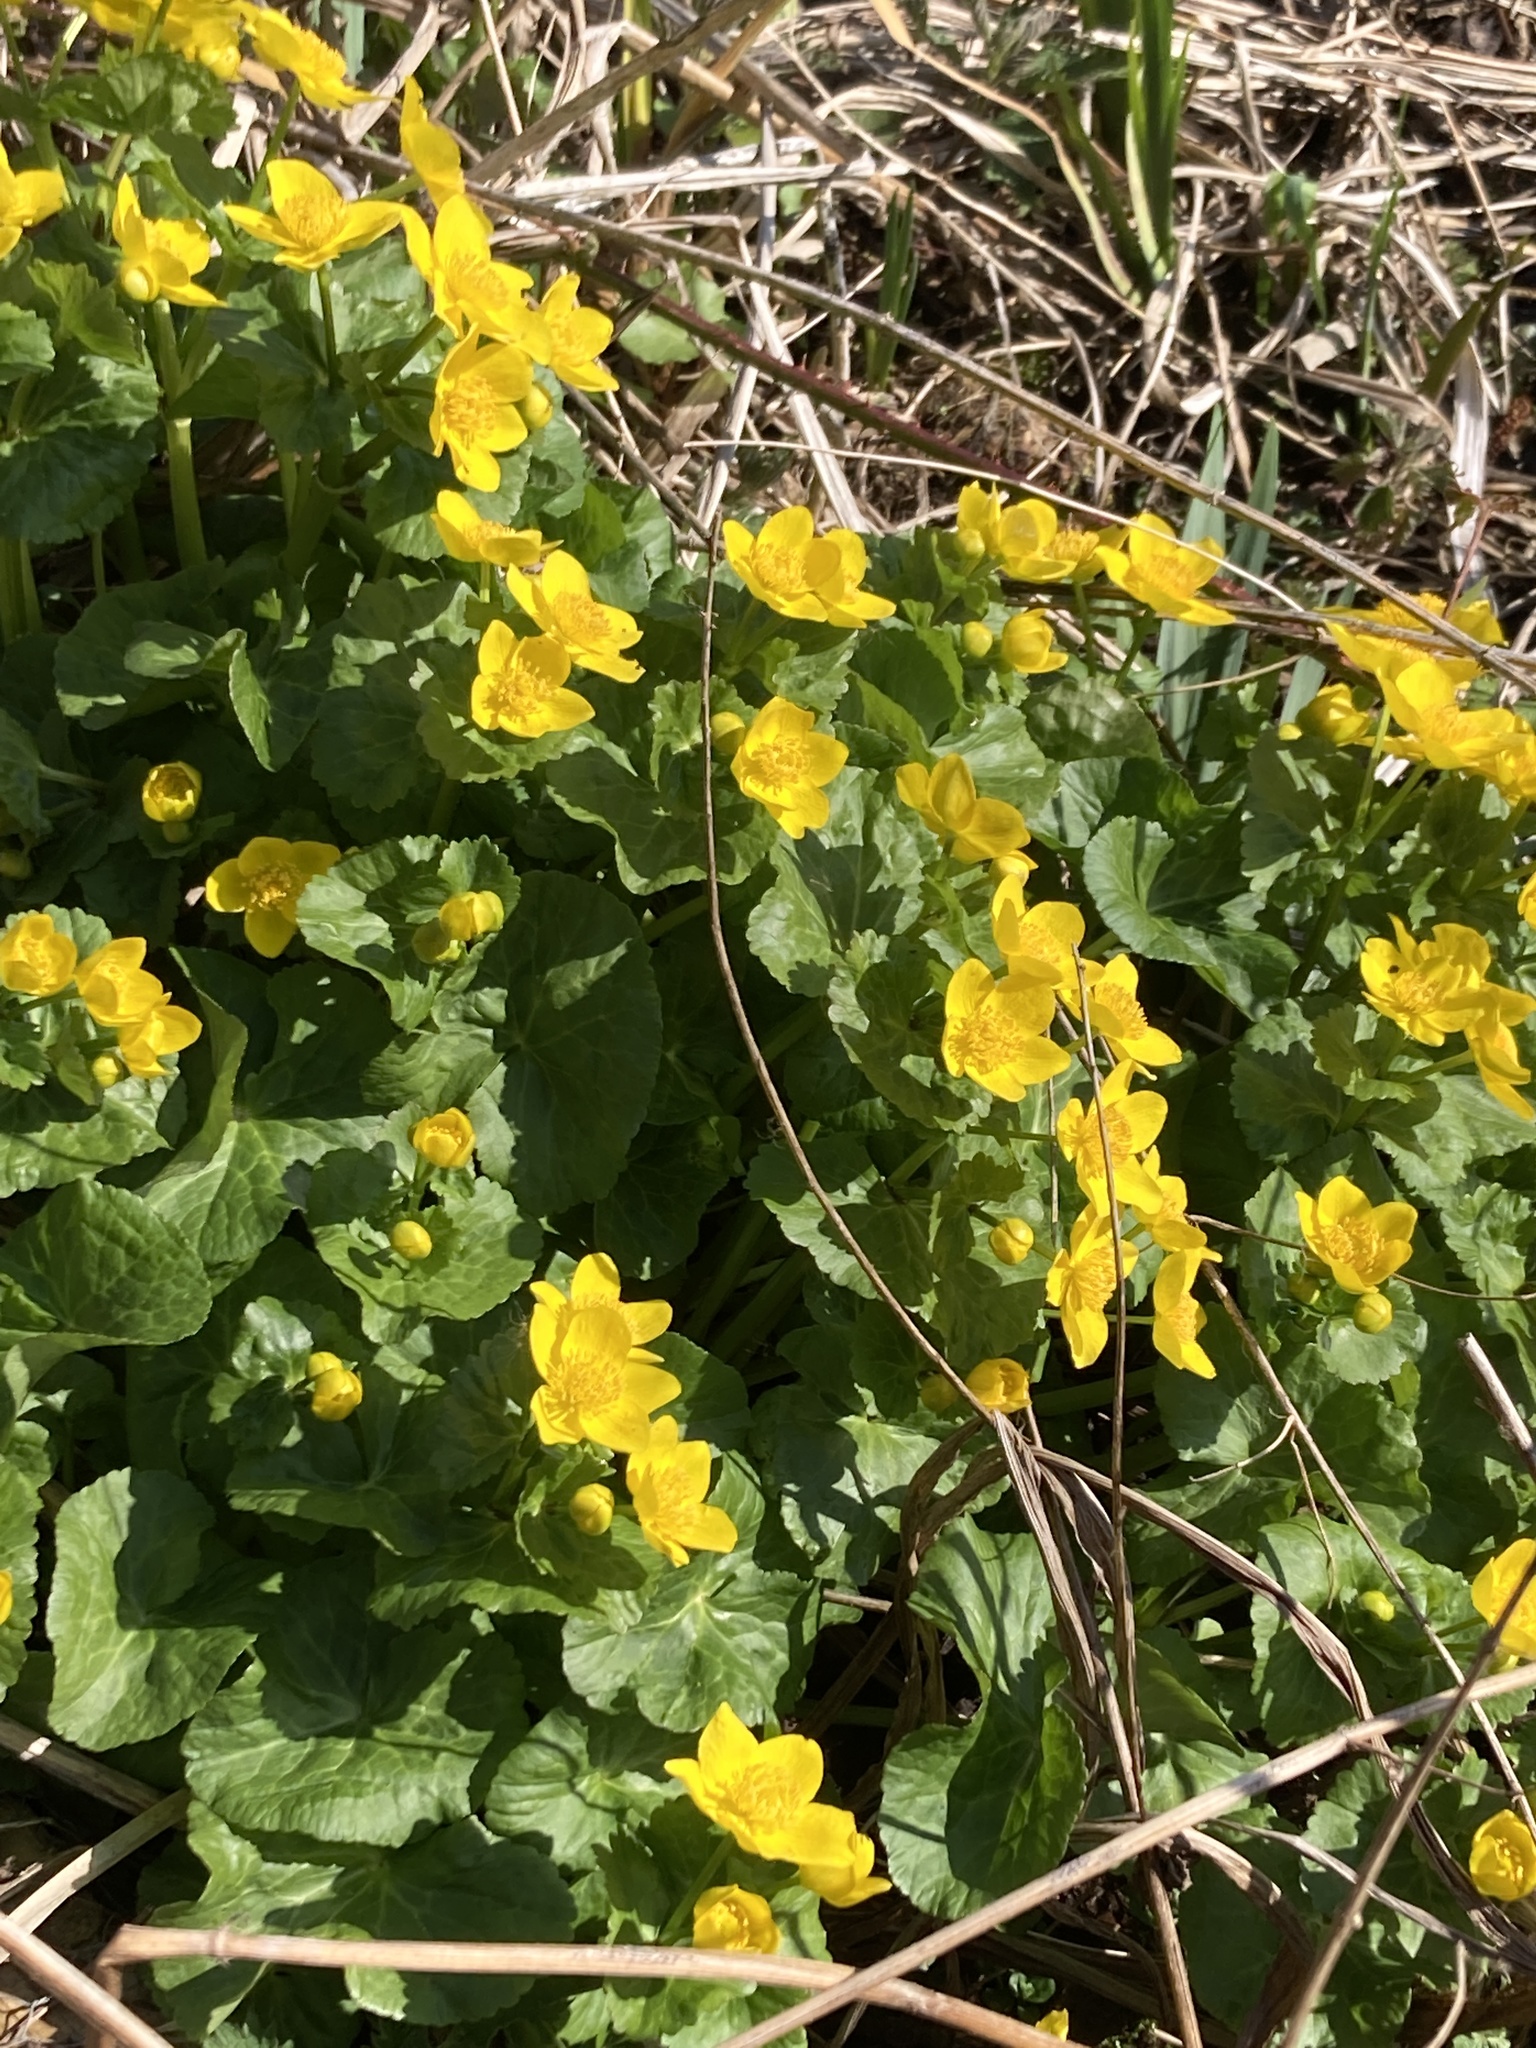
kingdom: Plantae
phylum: Tracheophyta
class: Magnoliopsida
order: Ranunculales
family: Ranunculaceae
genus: Caltha
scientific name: Caltha palustris
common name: Marsh marigold
